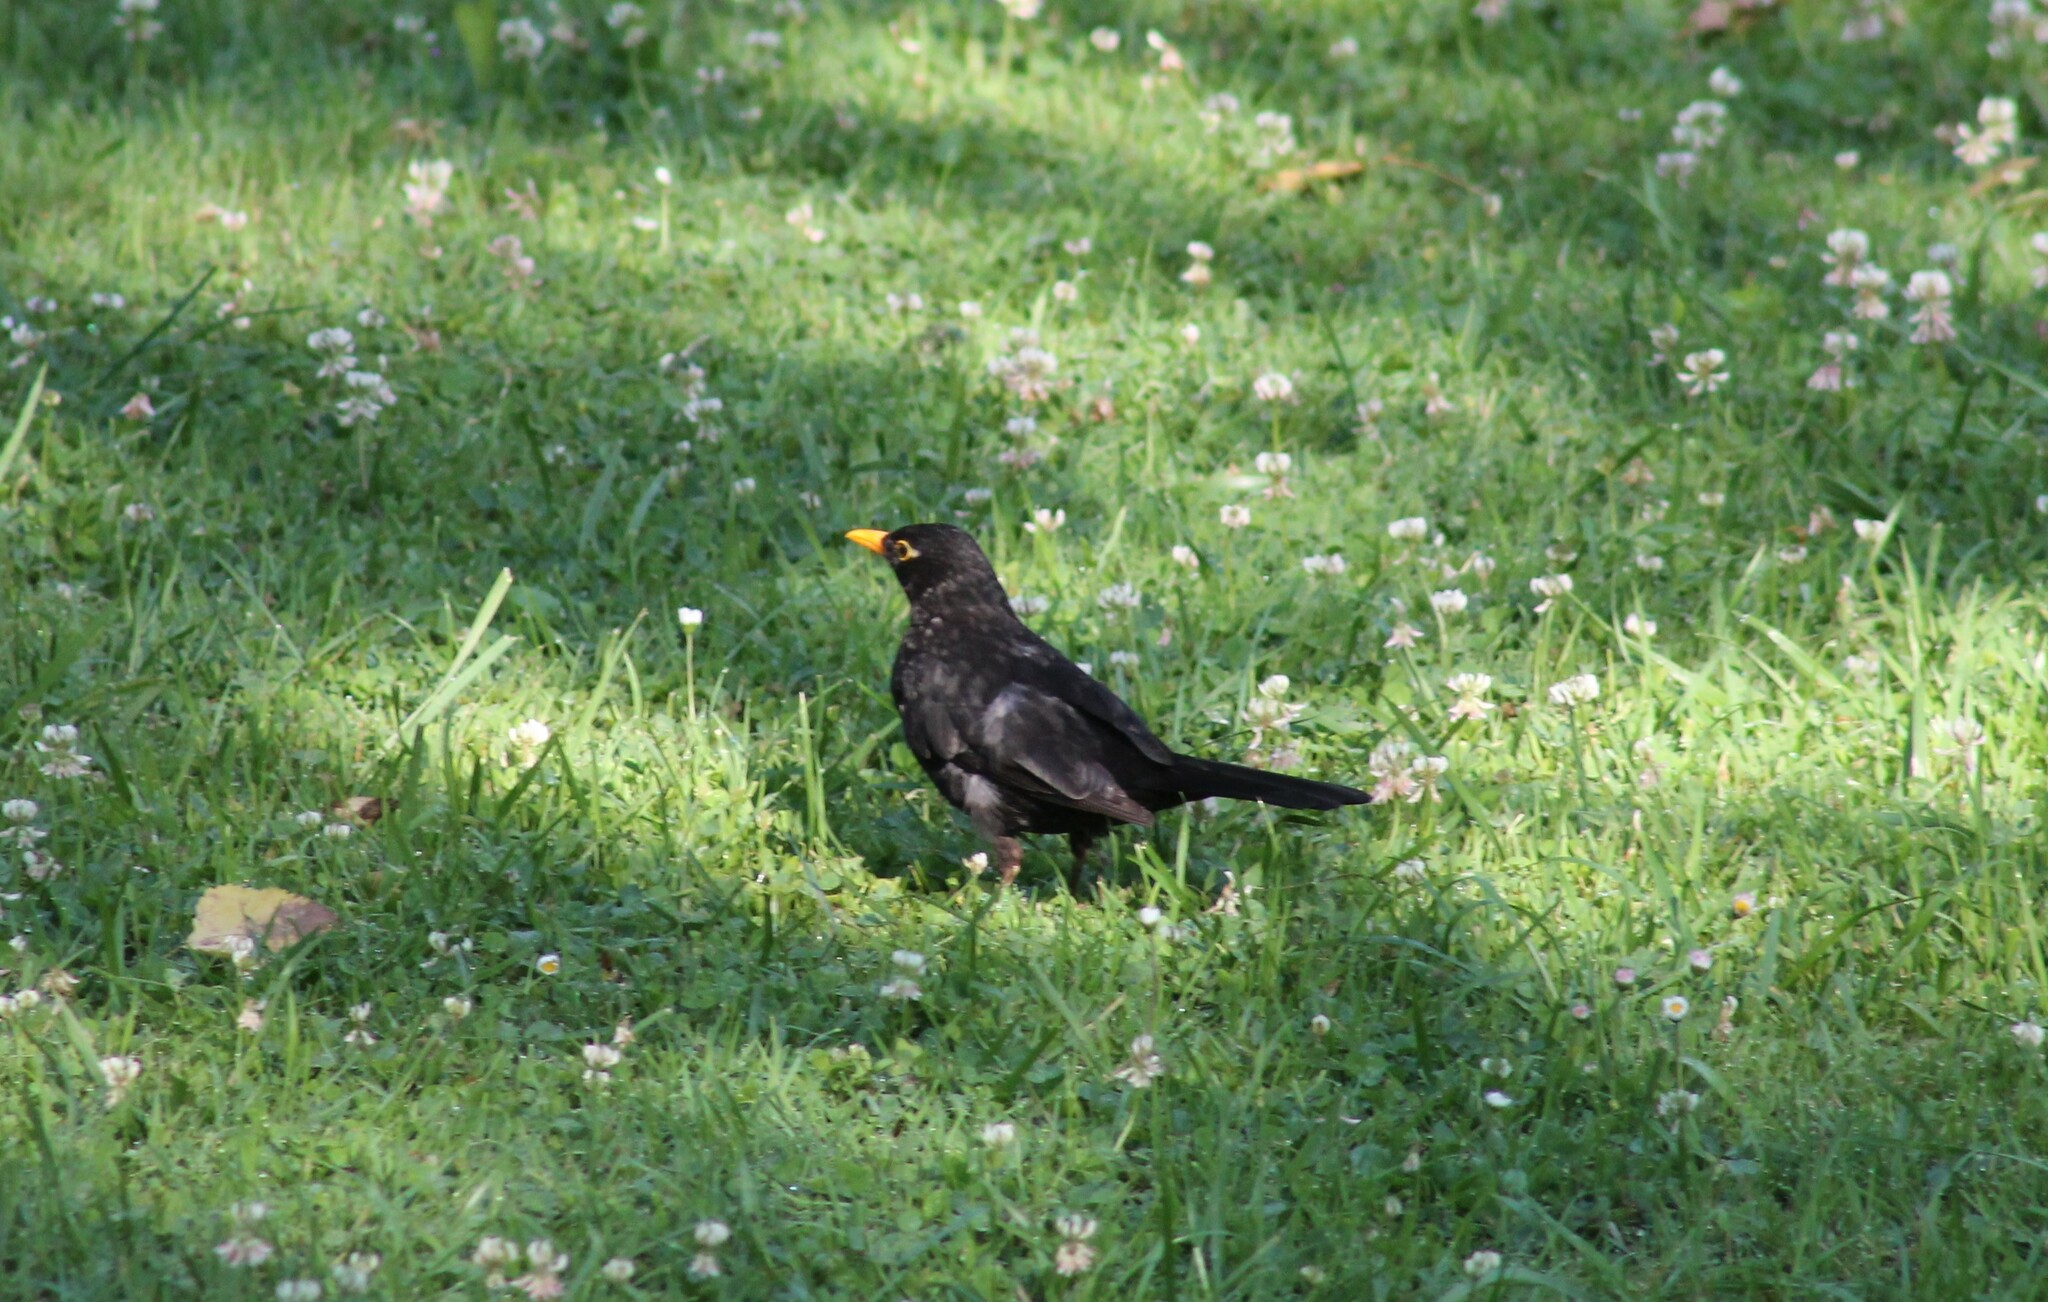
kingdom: Animalia
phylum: Chordata
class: Aves
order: Passeriformes
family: Turdidae
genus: Turdus
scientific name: Turdus merula
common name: Common blackbird
